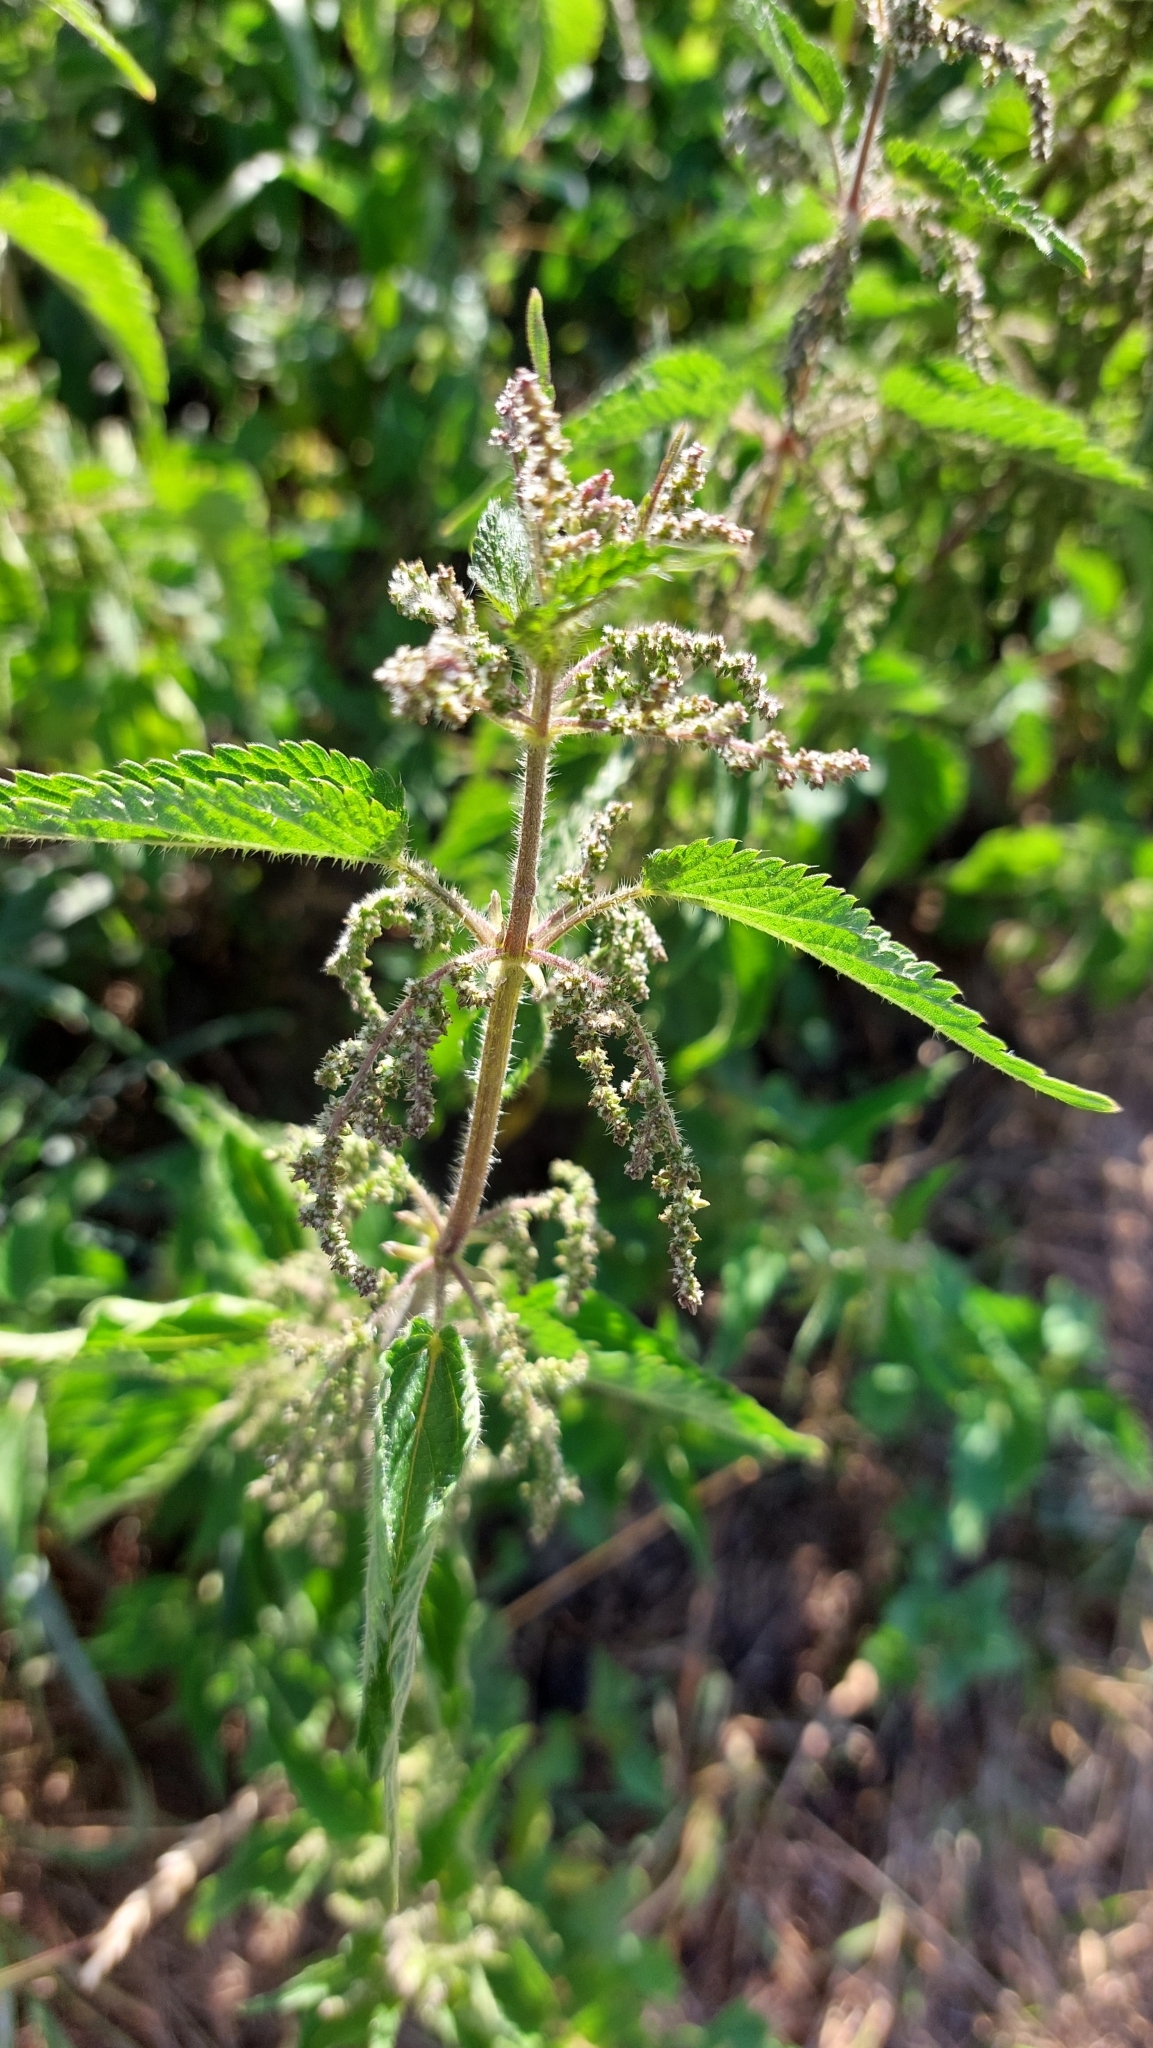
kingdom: Plantae
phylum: Tracheophyta
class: Magnoliopsida
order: Rosales
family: Urticaceae
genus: Urtica
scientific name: Urtica dioica
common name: Common nettle
